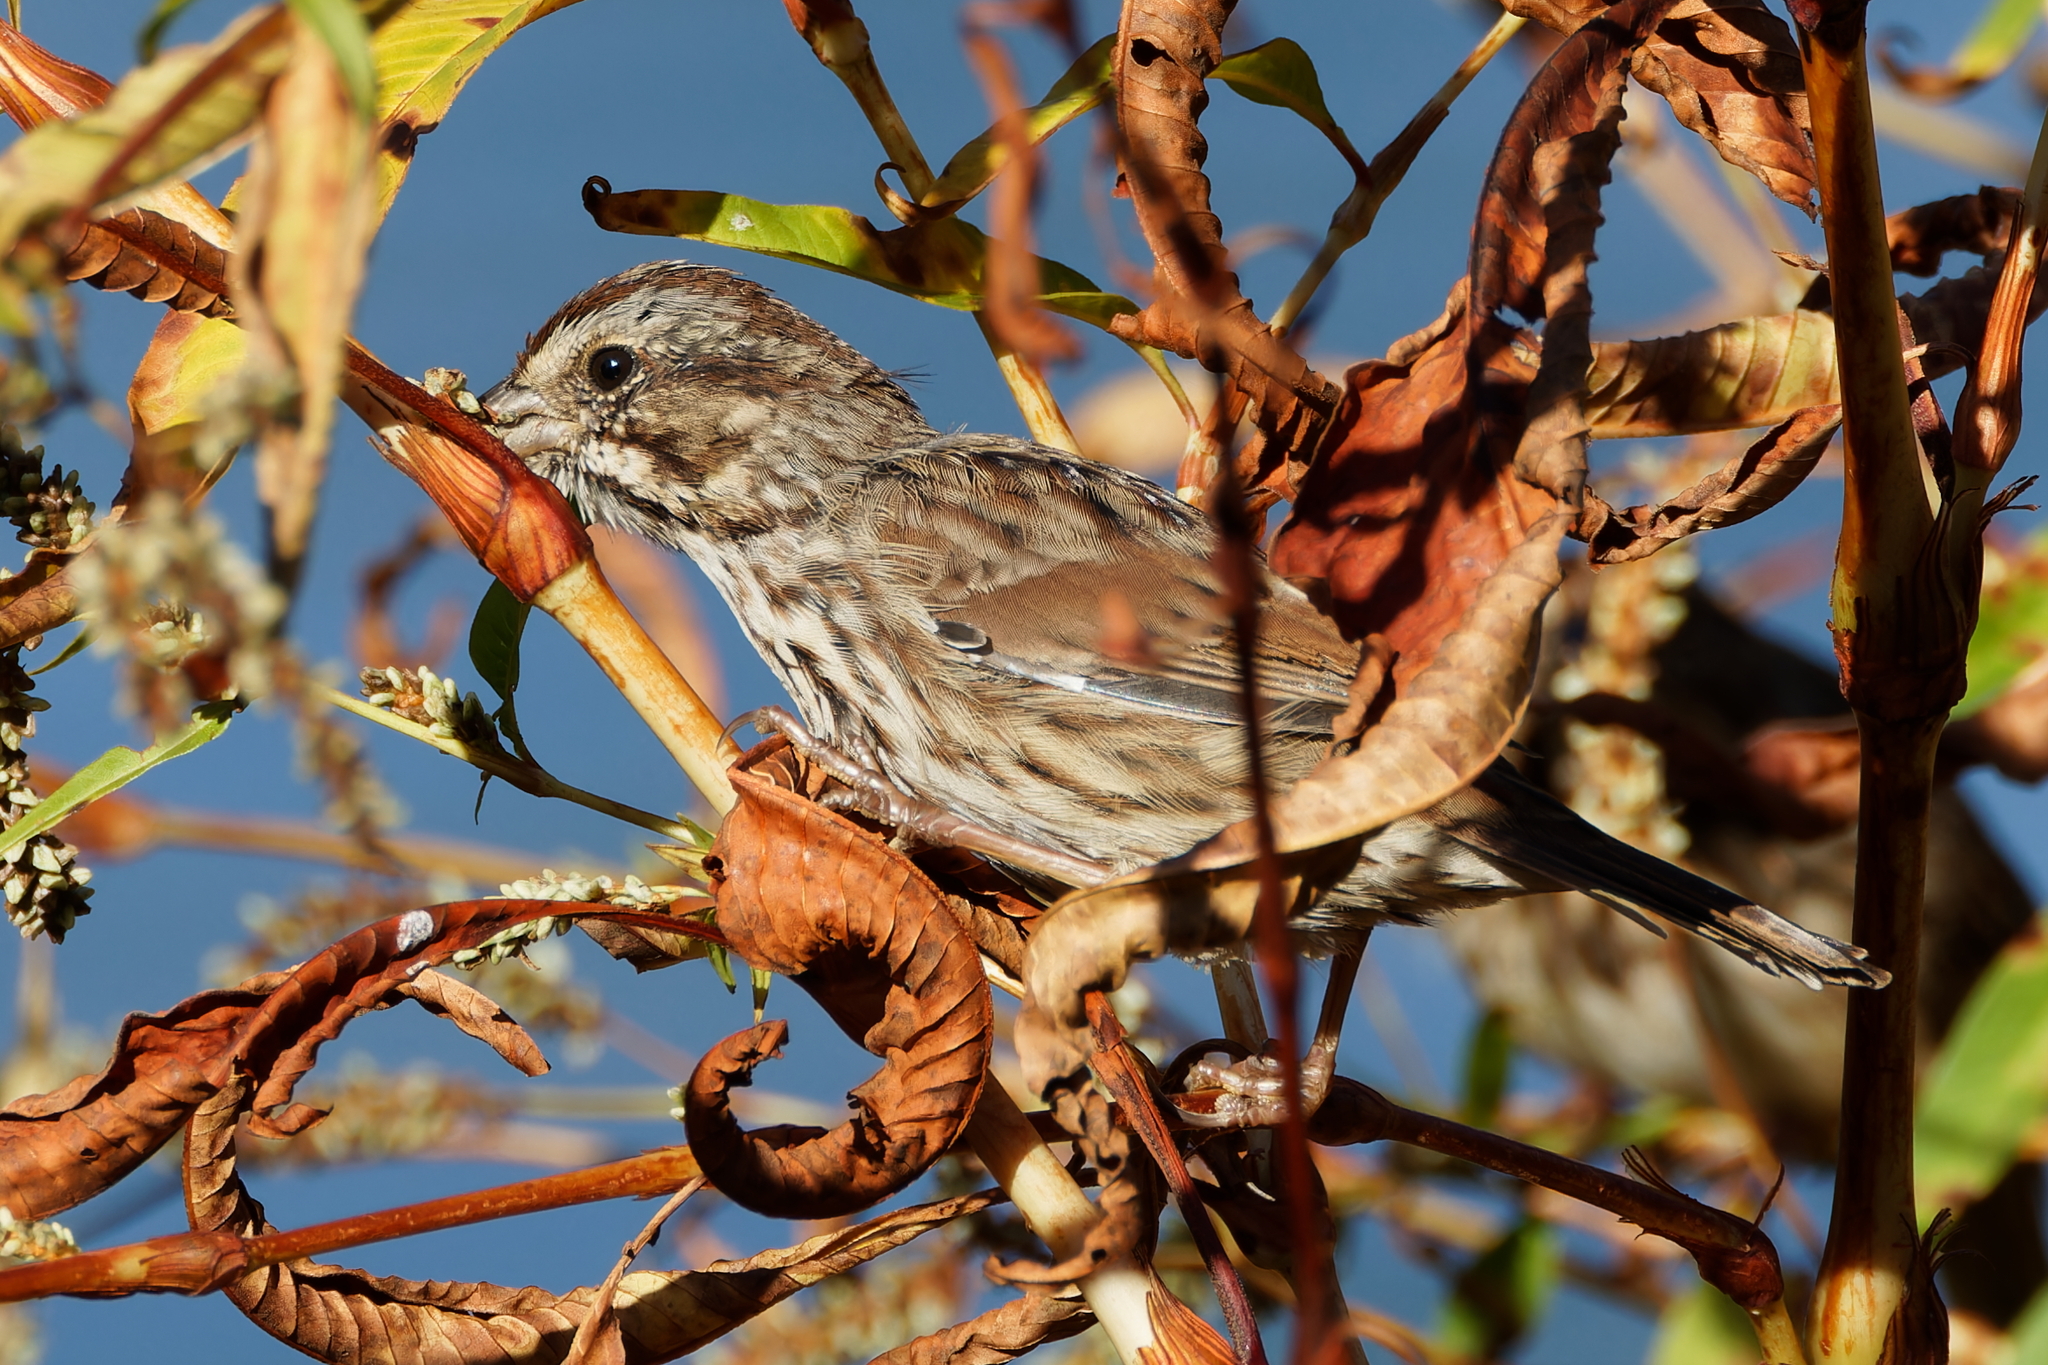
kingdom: Animalia
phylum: Chordata
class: Aves
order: Passeriformes
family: Passerellidae
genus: Melospiza
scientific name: Melospiza melodia
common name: Song sparrow
